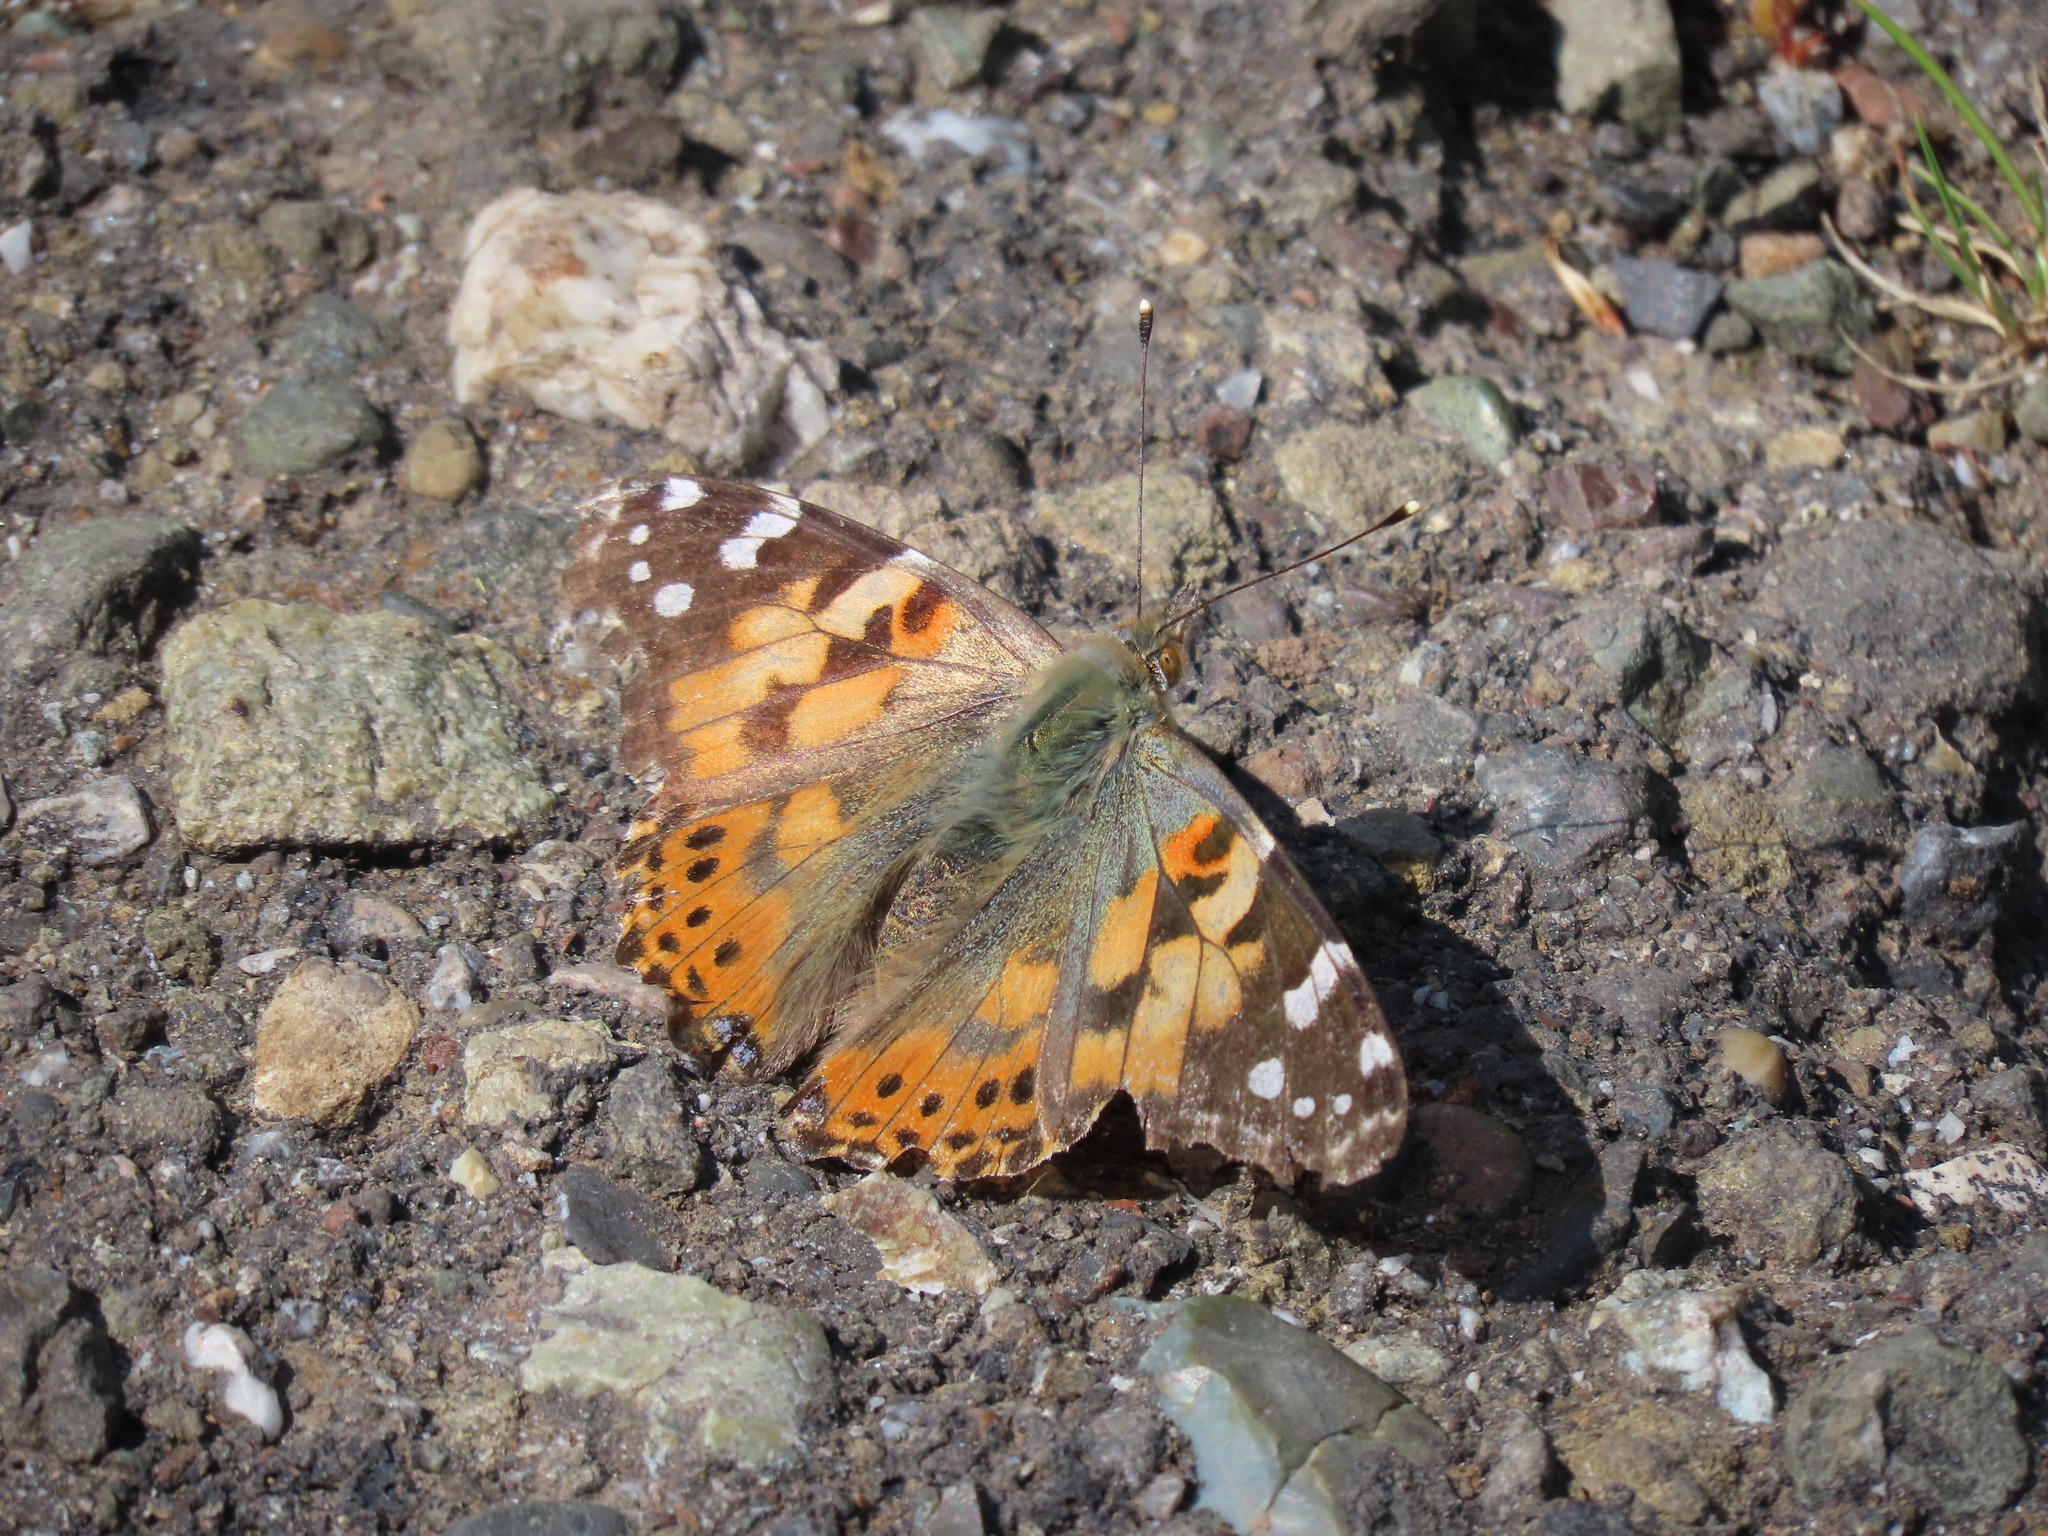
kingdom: Animalia
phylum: Arthropoda
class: Insecta
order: Lepidoptera
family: Nymphalidae
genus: Vanessa
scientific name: Vanessa cardui
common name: Painted lady
